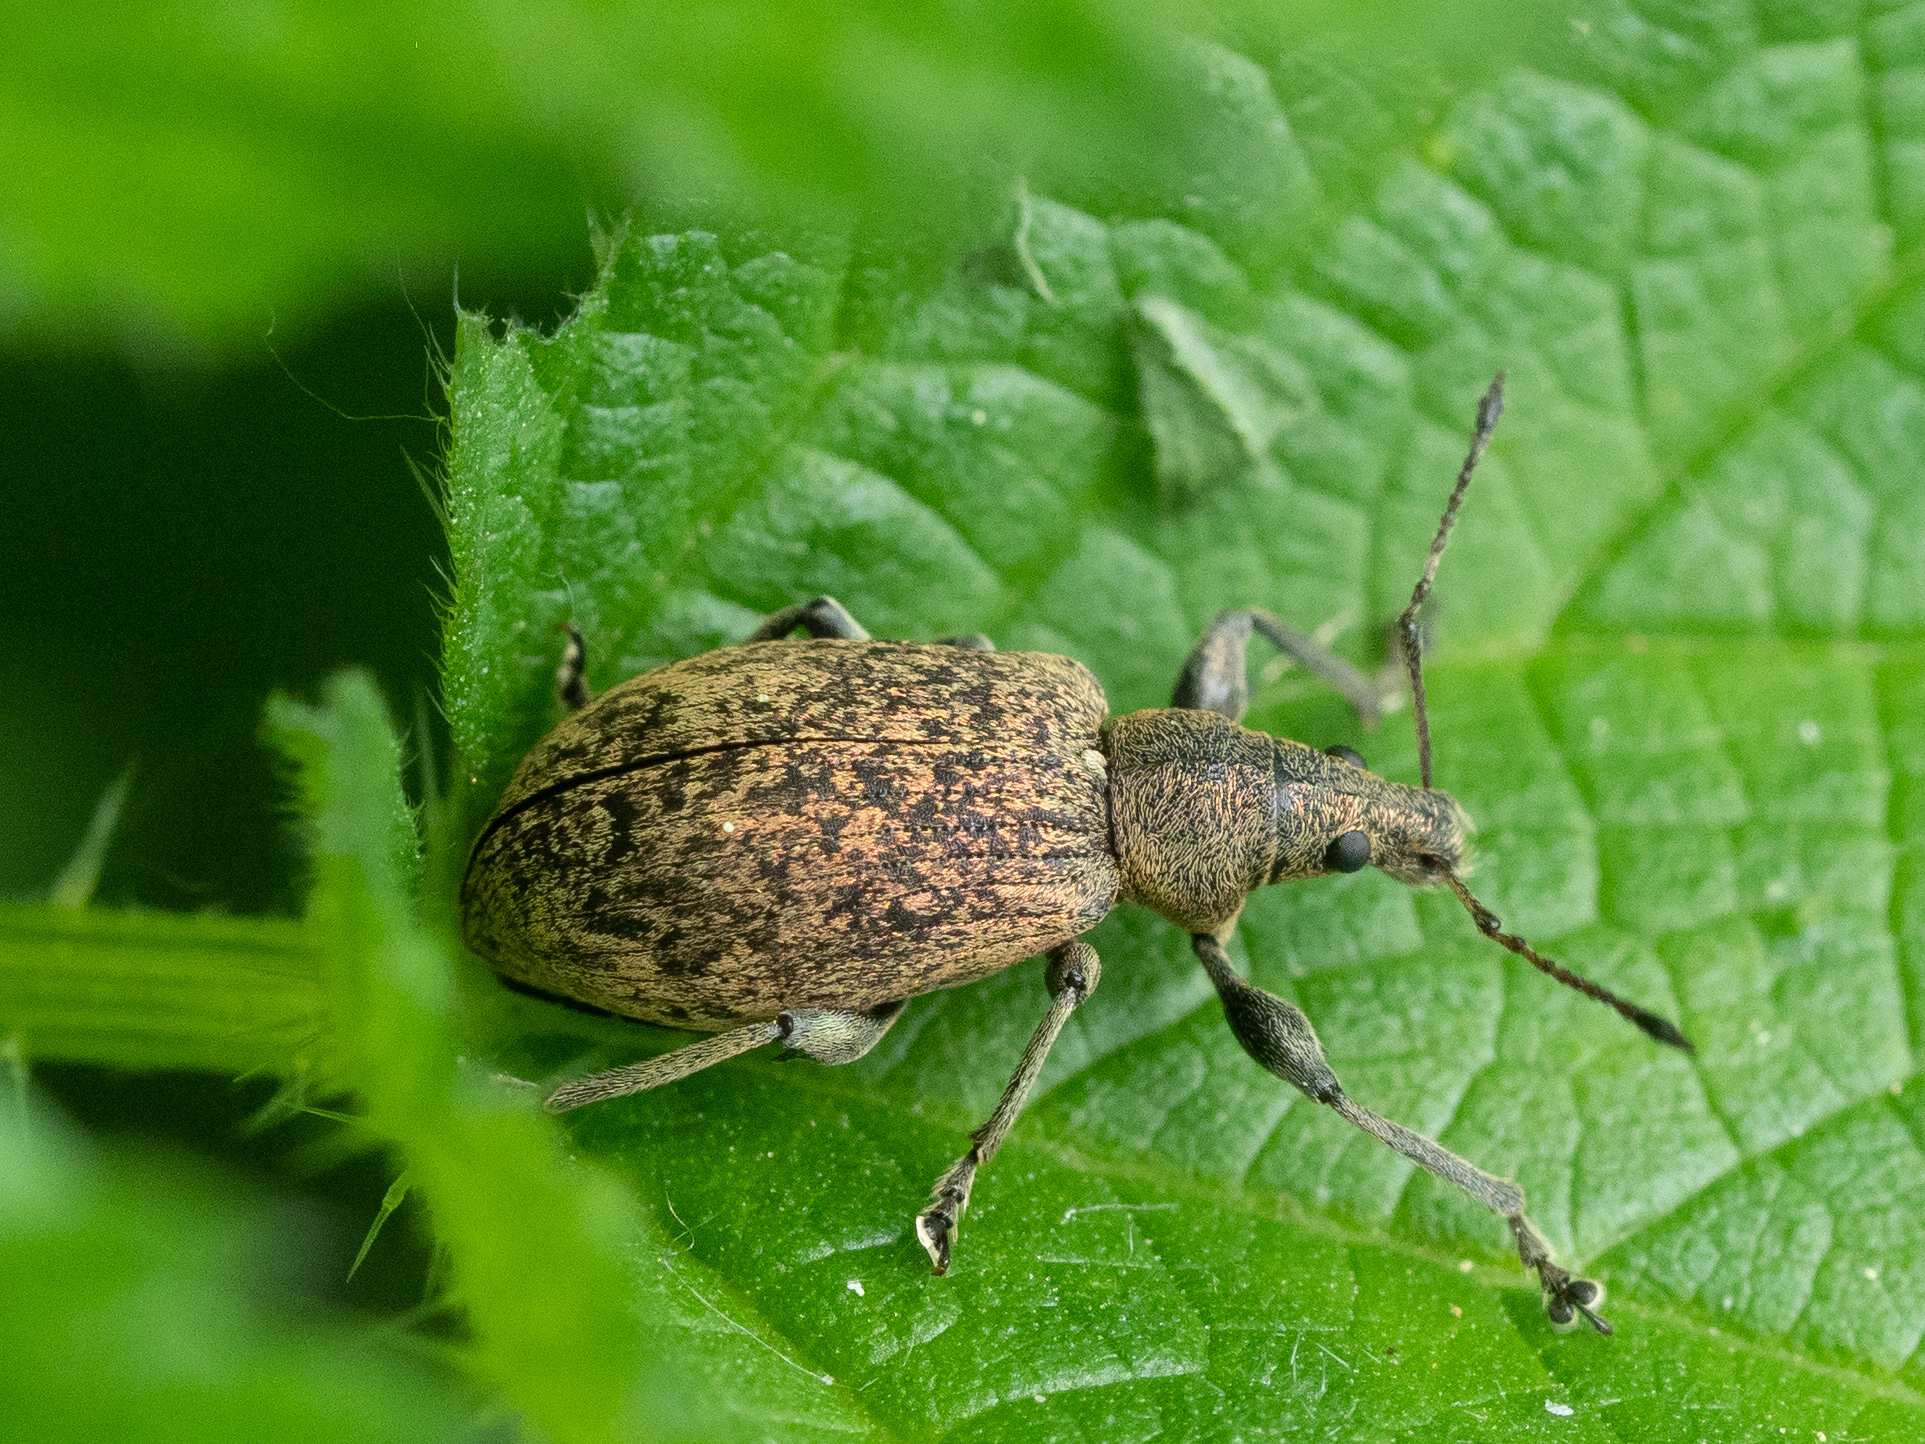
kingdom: Animalia
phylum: Arthropoda
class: Insecta
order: Coleoptera
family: Curculionidae
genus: Phyllobius
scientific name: Phyllobius pomaceus
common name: Green nettle weevil
